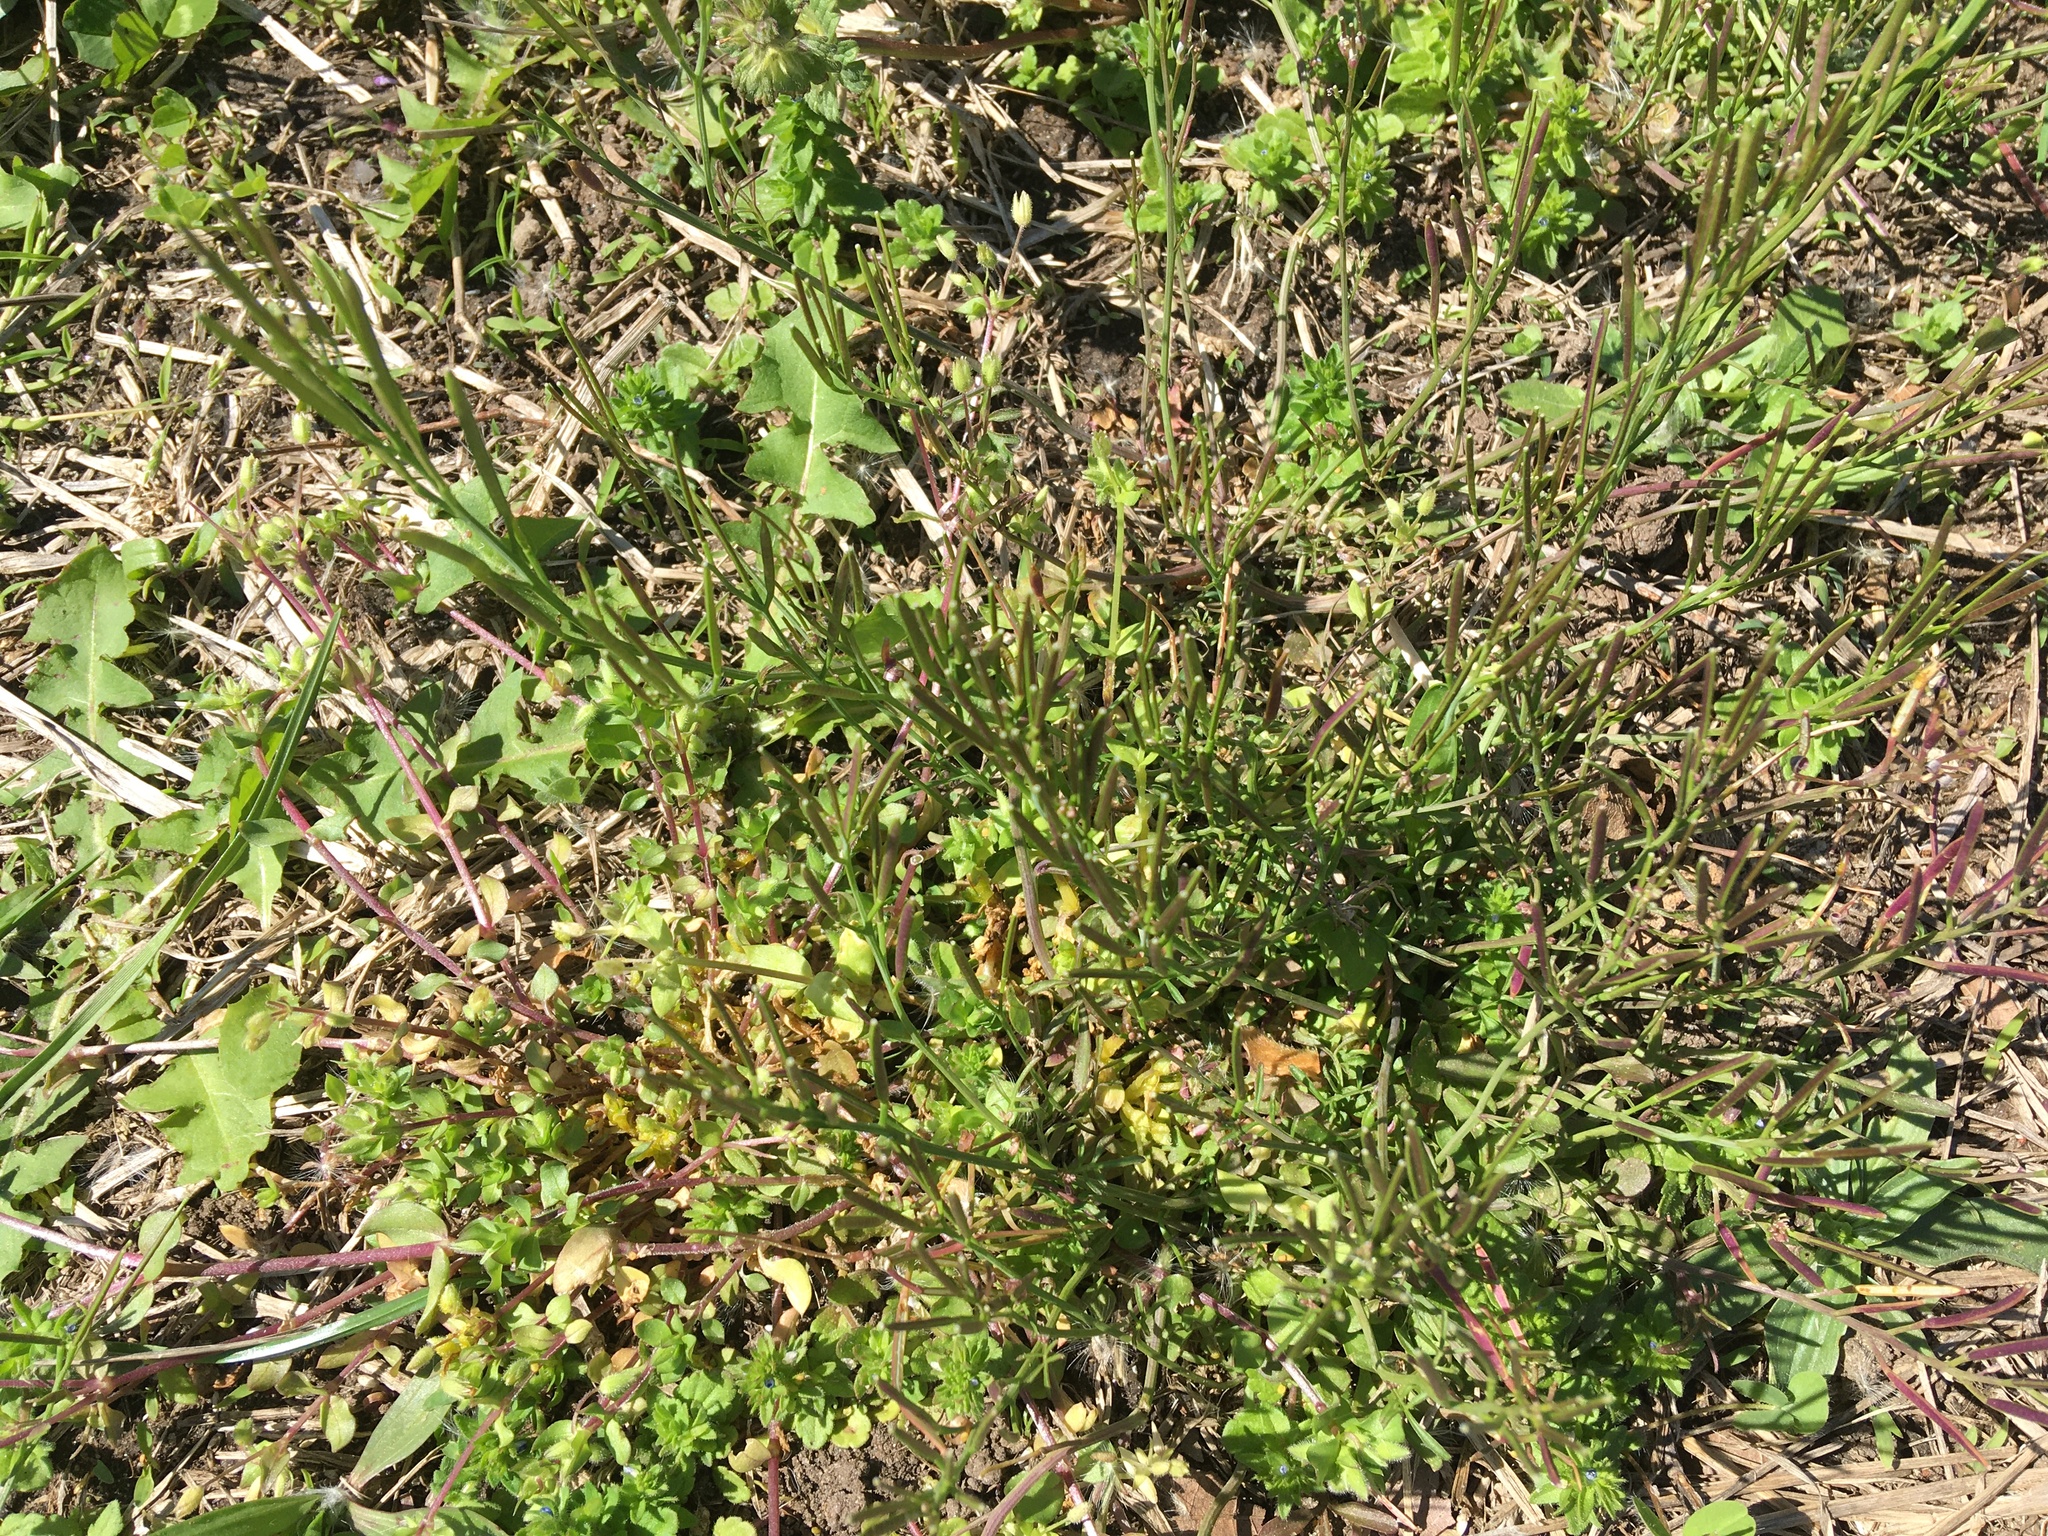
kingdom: Plantae
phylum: Tracheophyta
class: Magnoliopsida
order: Brassicales
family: Brassicaceae
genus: Cardamine
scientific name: Cardamine hirsuta
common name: Hairy bittercress
